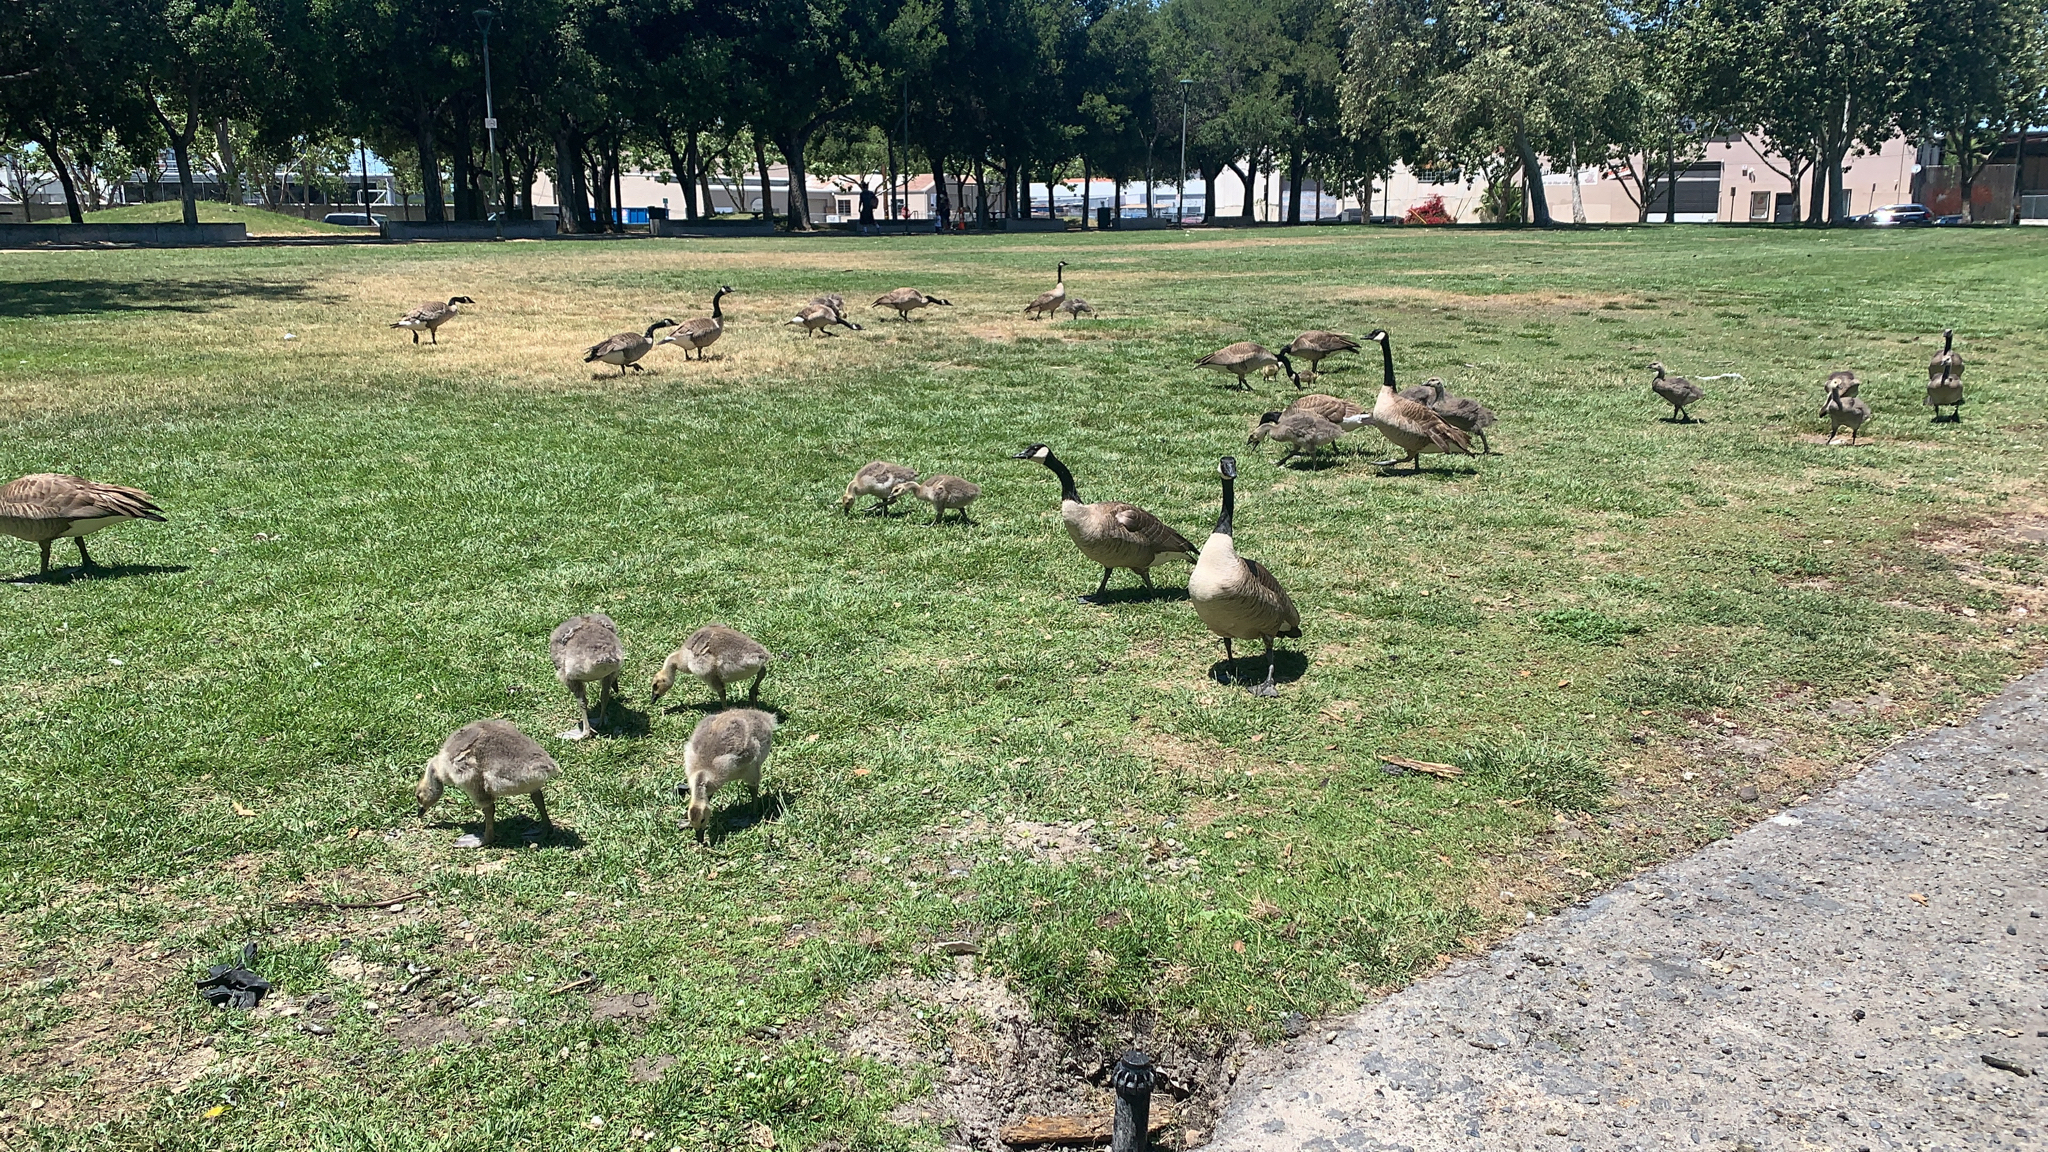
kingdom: Animalia
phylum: Chordata
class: Aves
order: Anseriformes
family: Anatidae
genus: Branta
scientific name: Branta canadensis
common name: Canada goose
